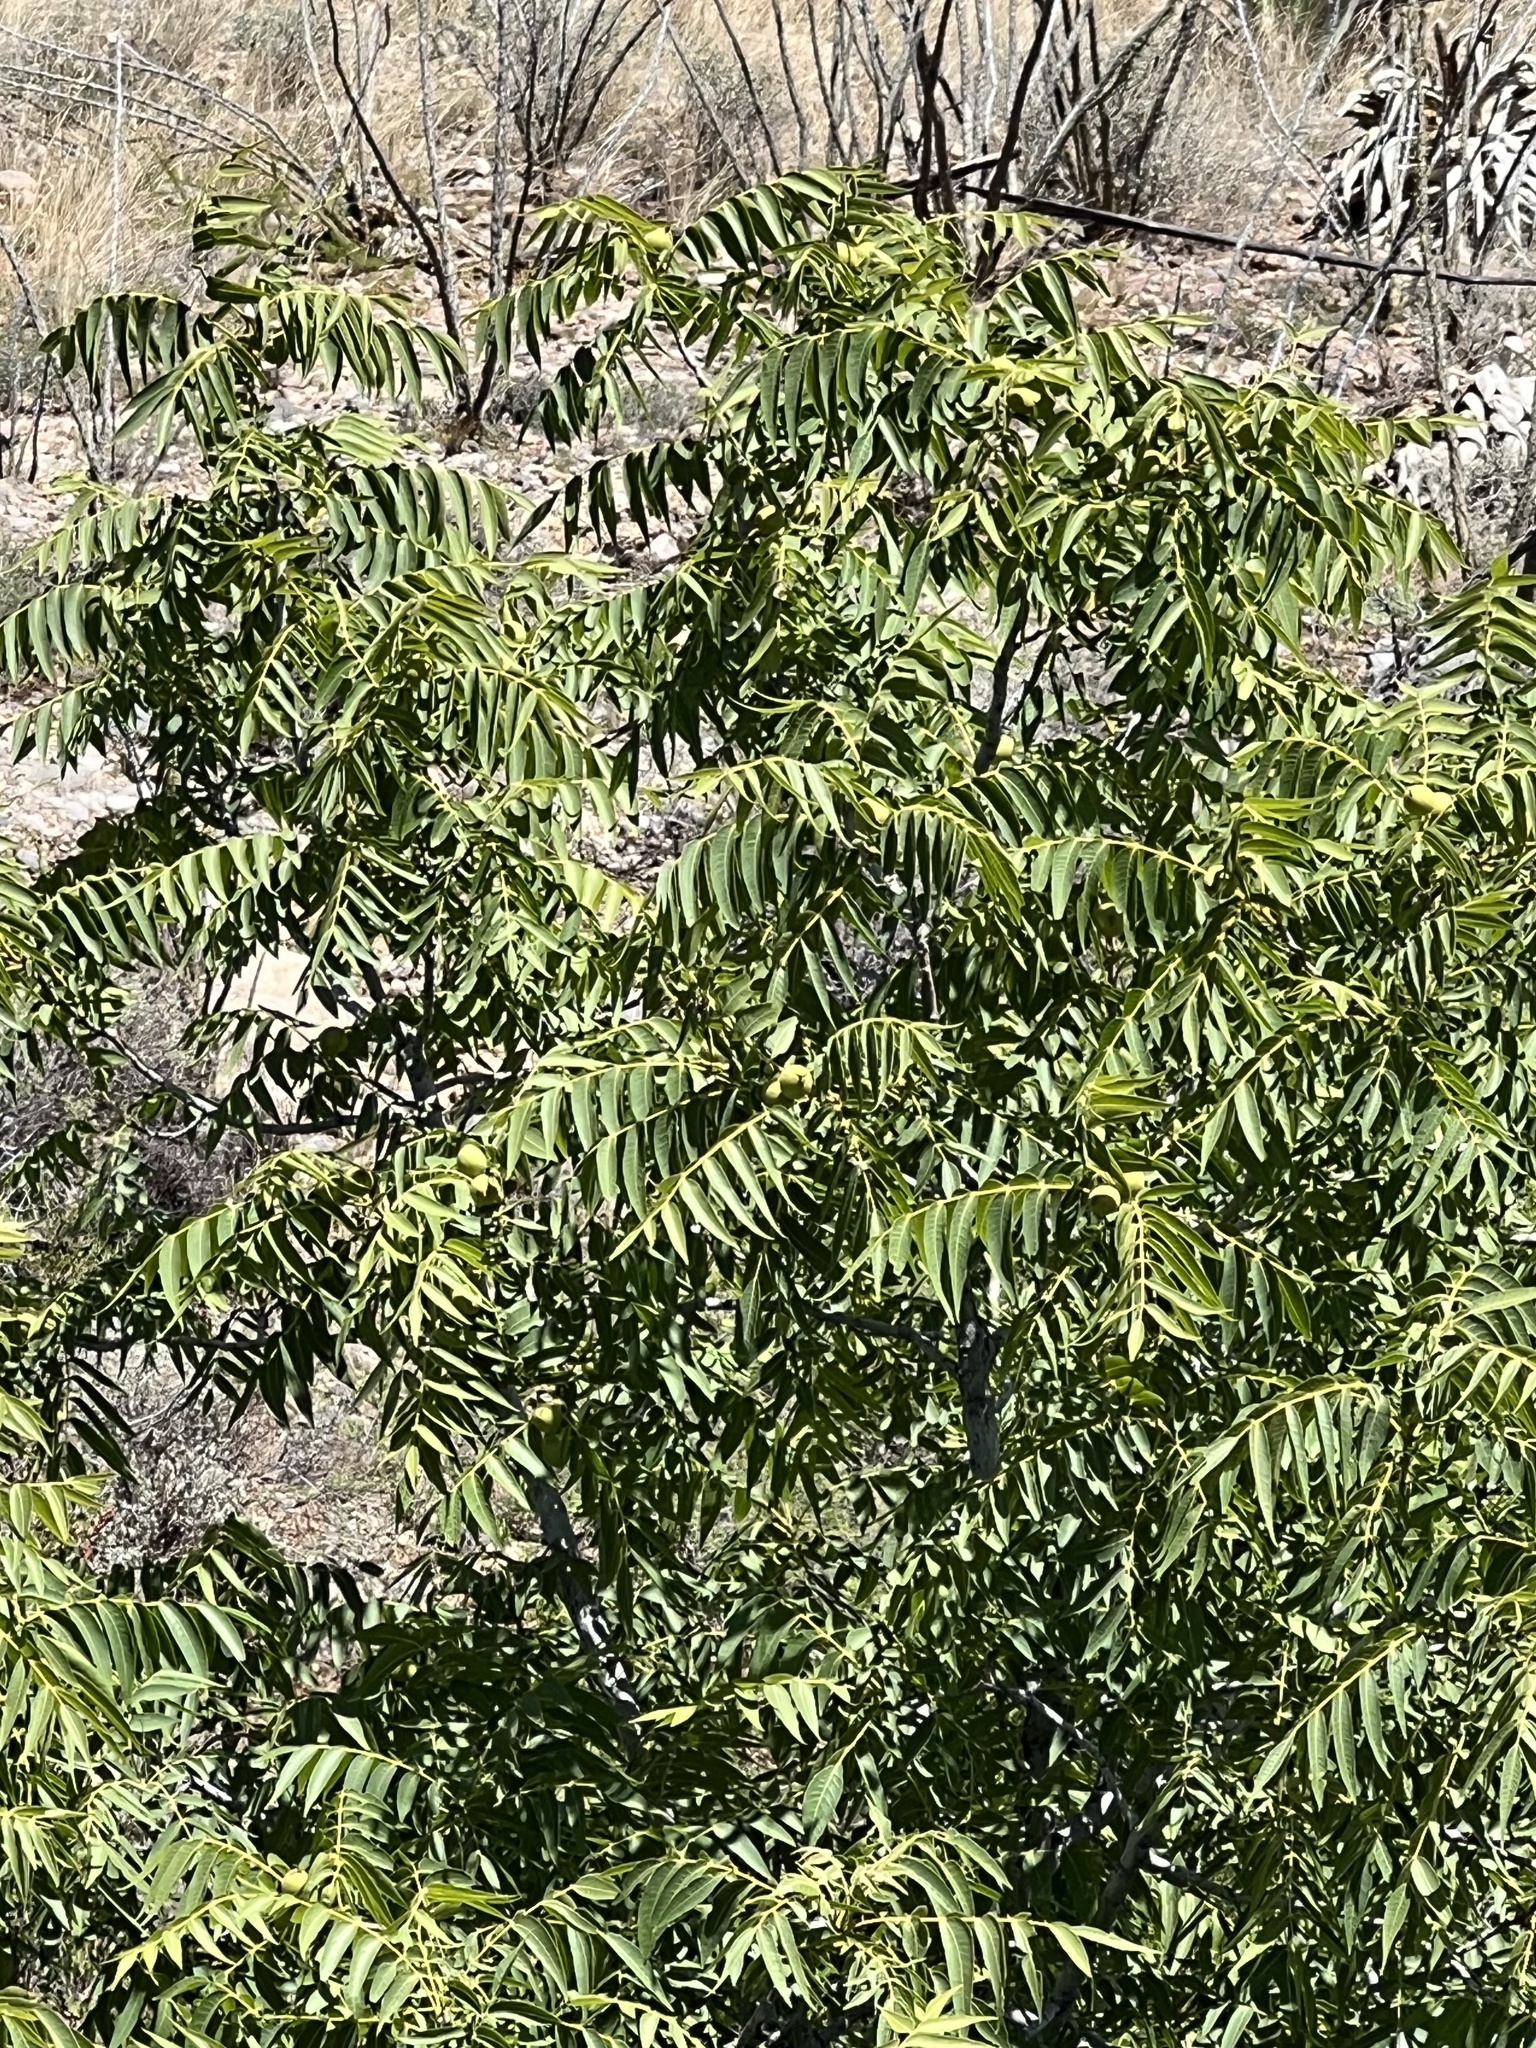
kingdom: Plantae
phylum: Tracheophyta
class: Magnoliopsida
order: Fagales
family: Juglandaceae
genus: Juglans
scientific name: Juglans major
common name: Arizona walnut
